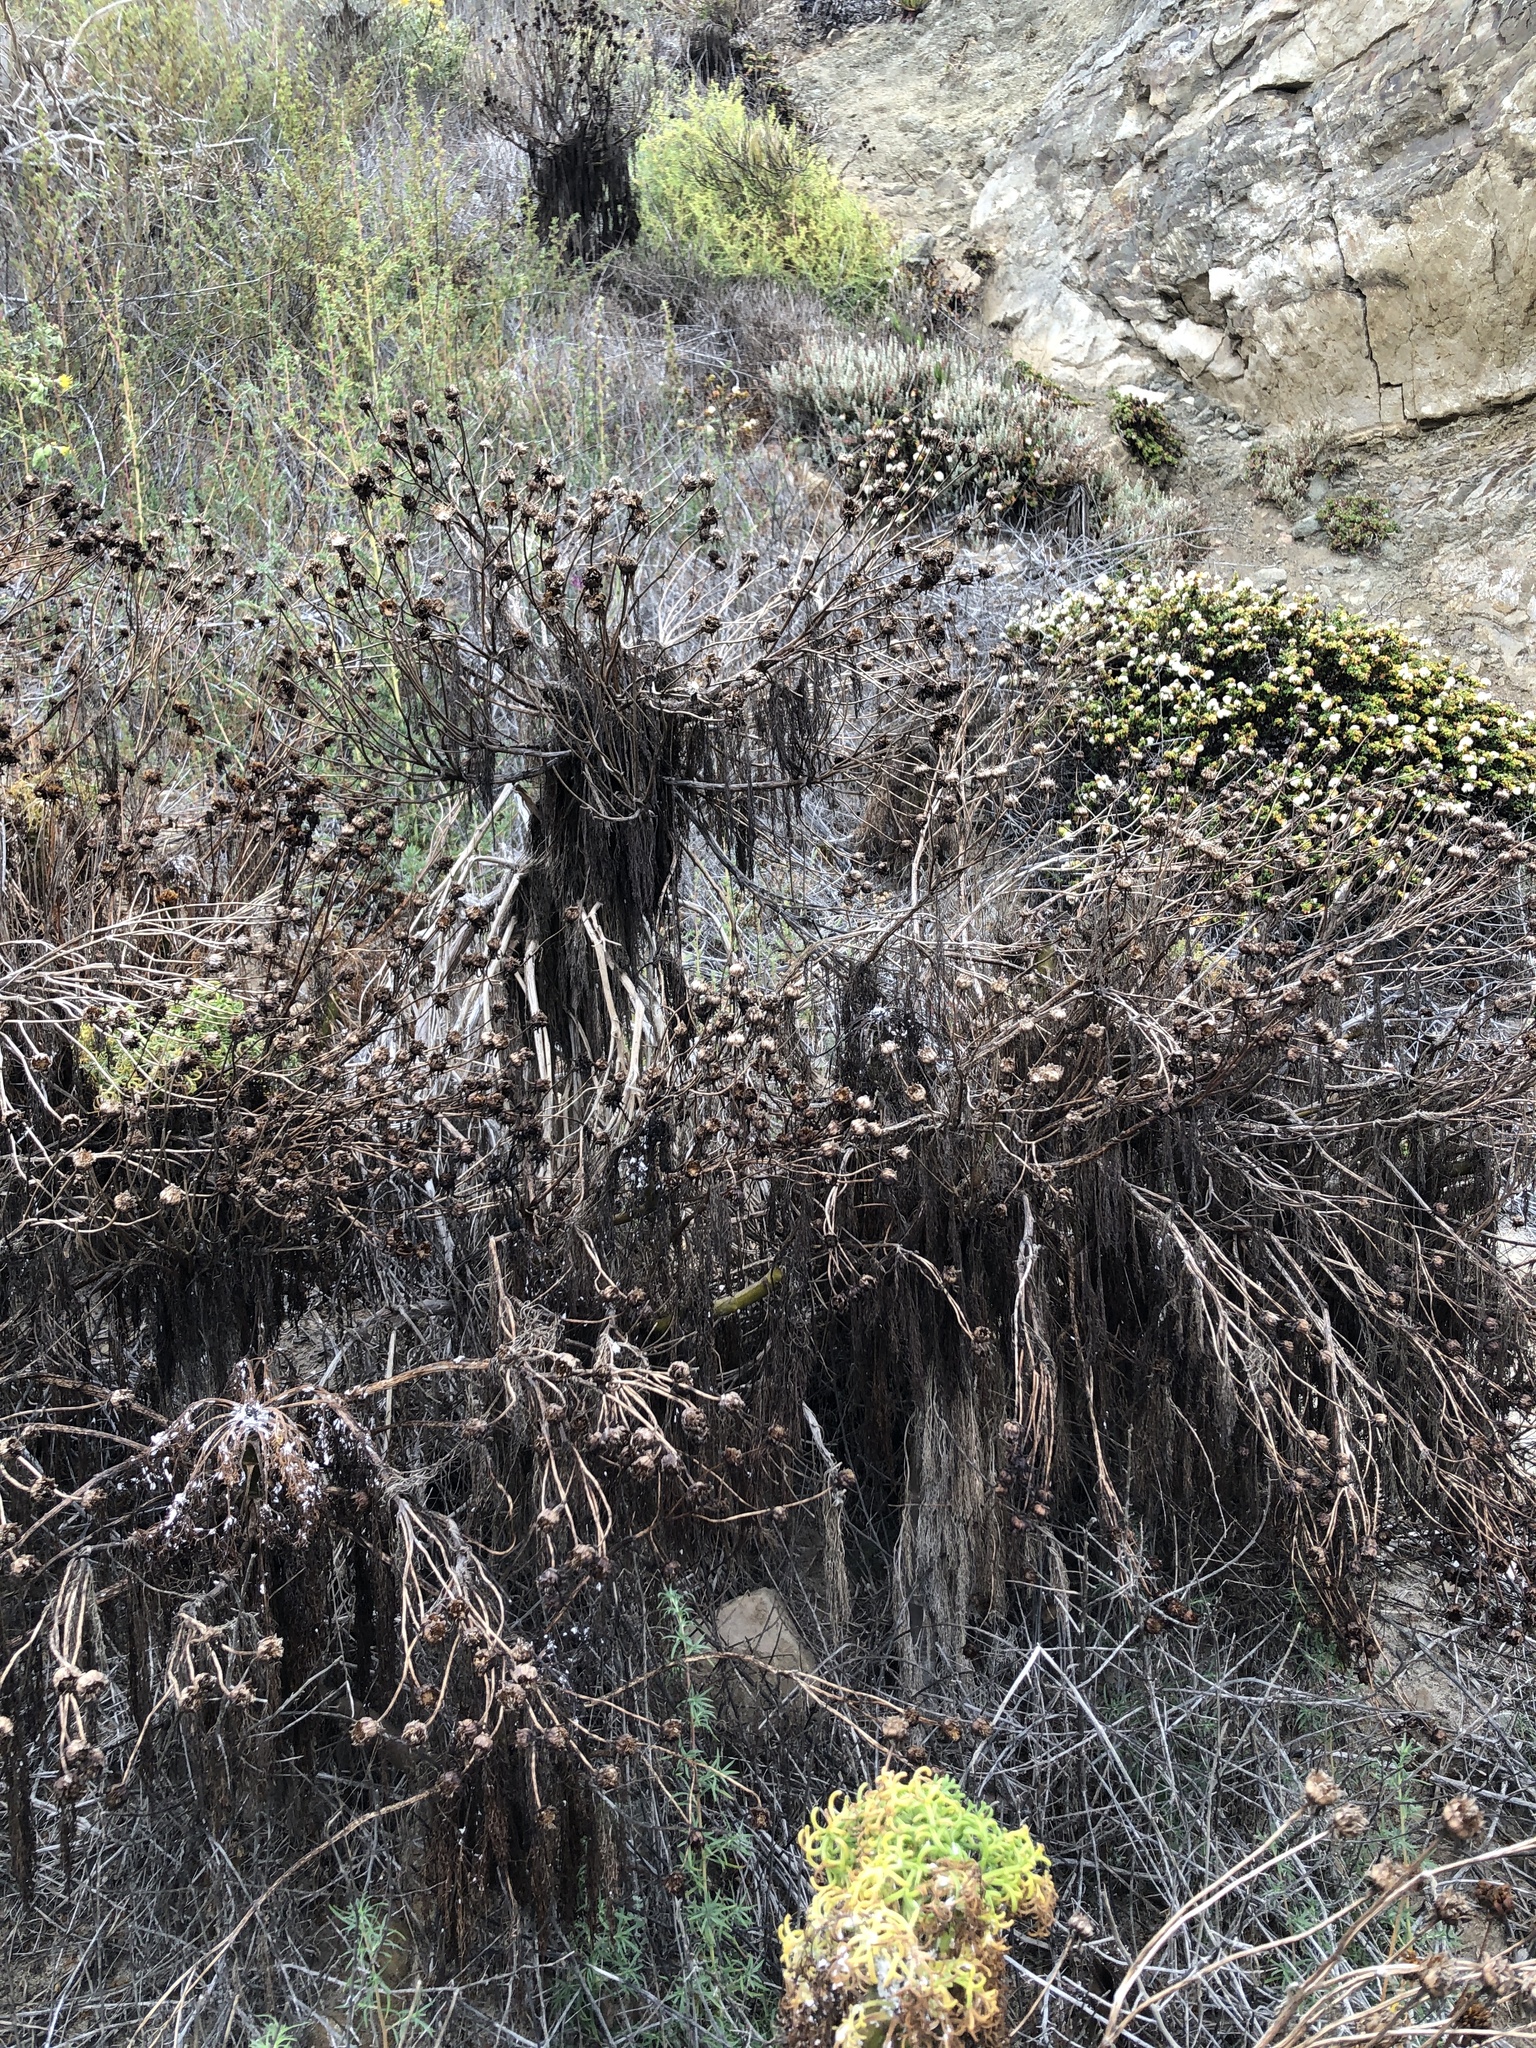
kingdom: Plantae
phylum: Tracheophyta
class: Magnoliopsida
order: Asterales
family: Asteraceae
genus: Coreopsis
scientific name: Coreopsis gigantea
